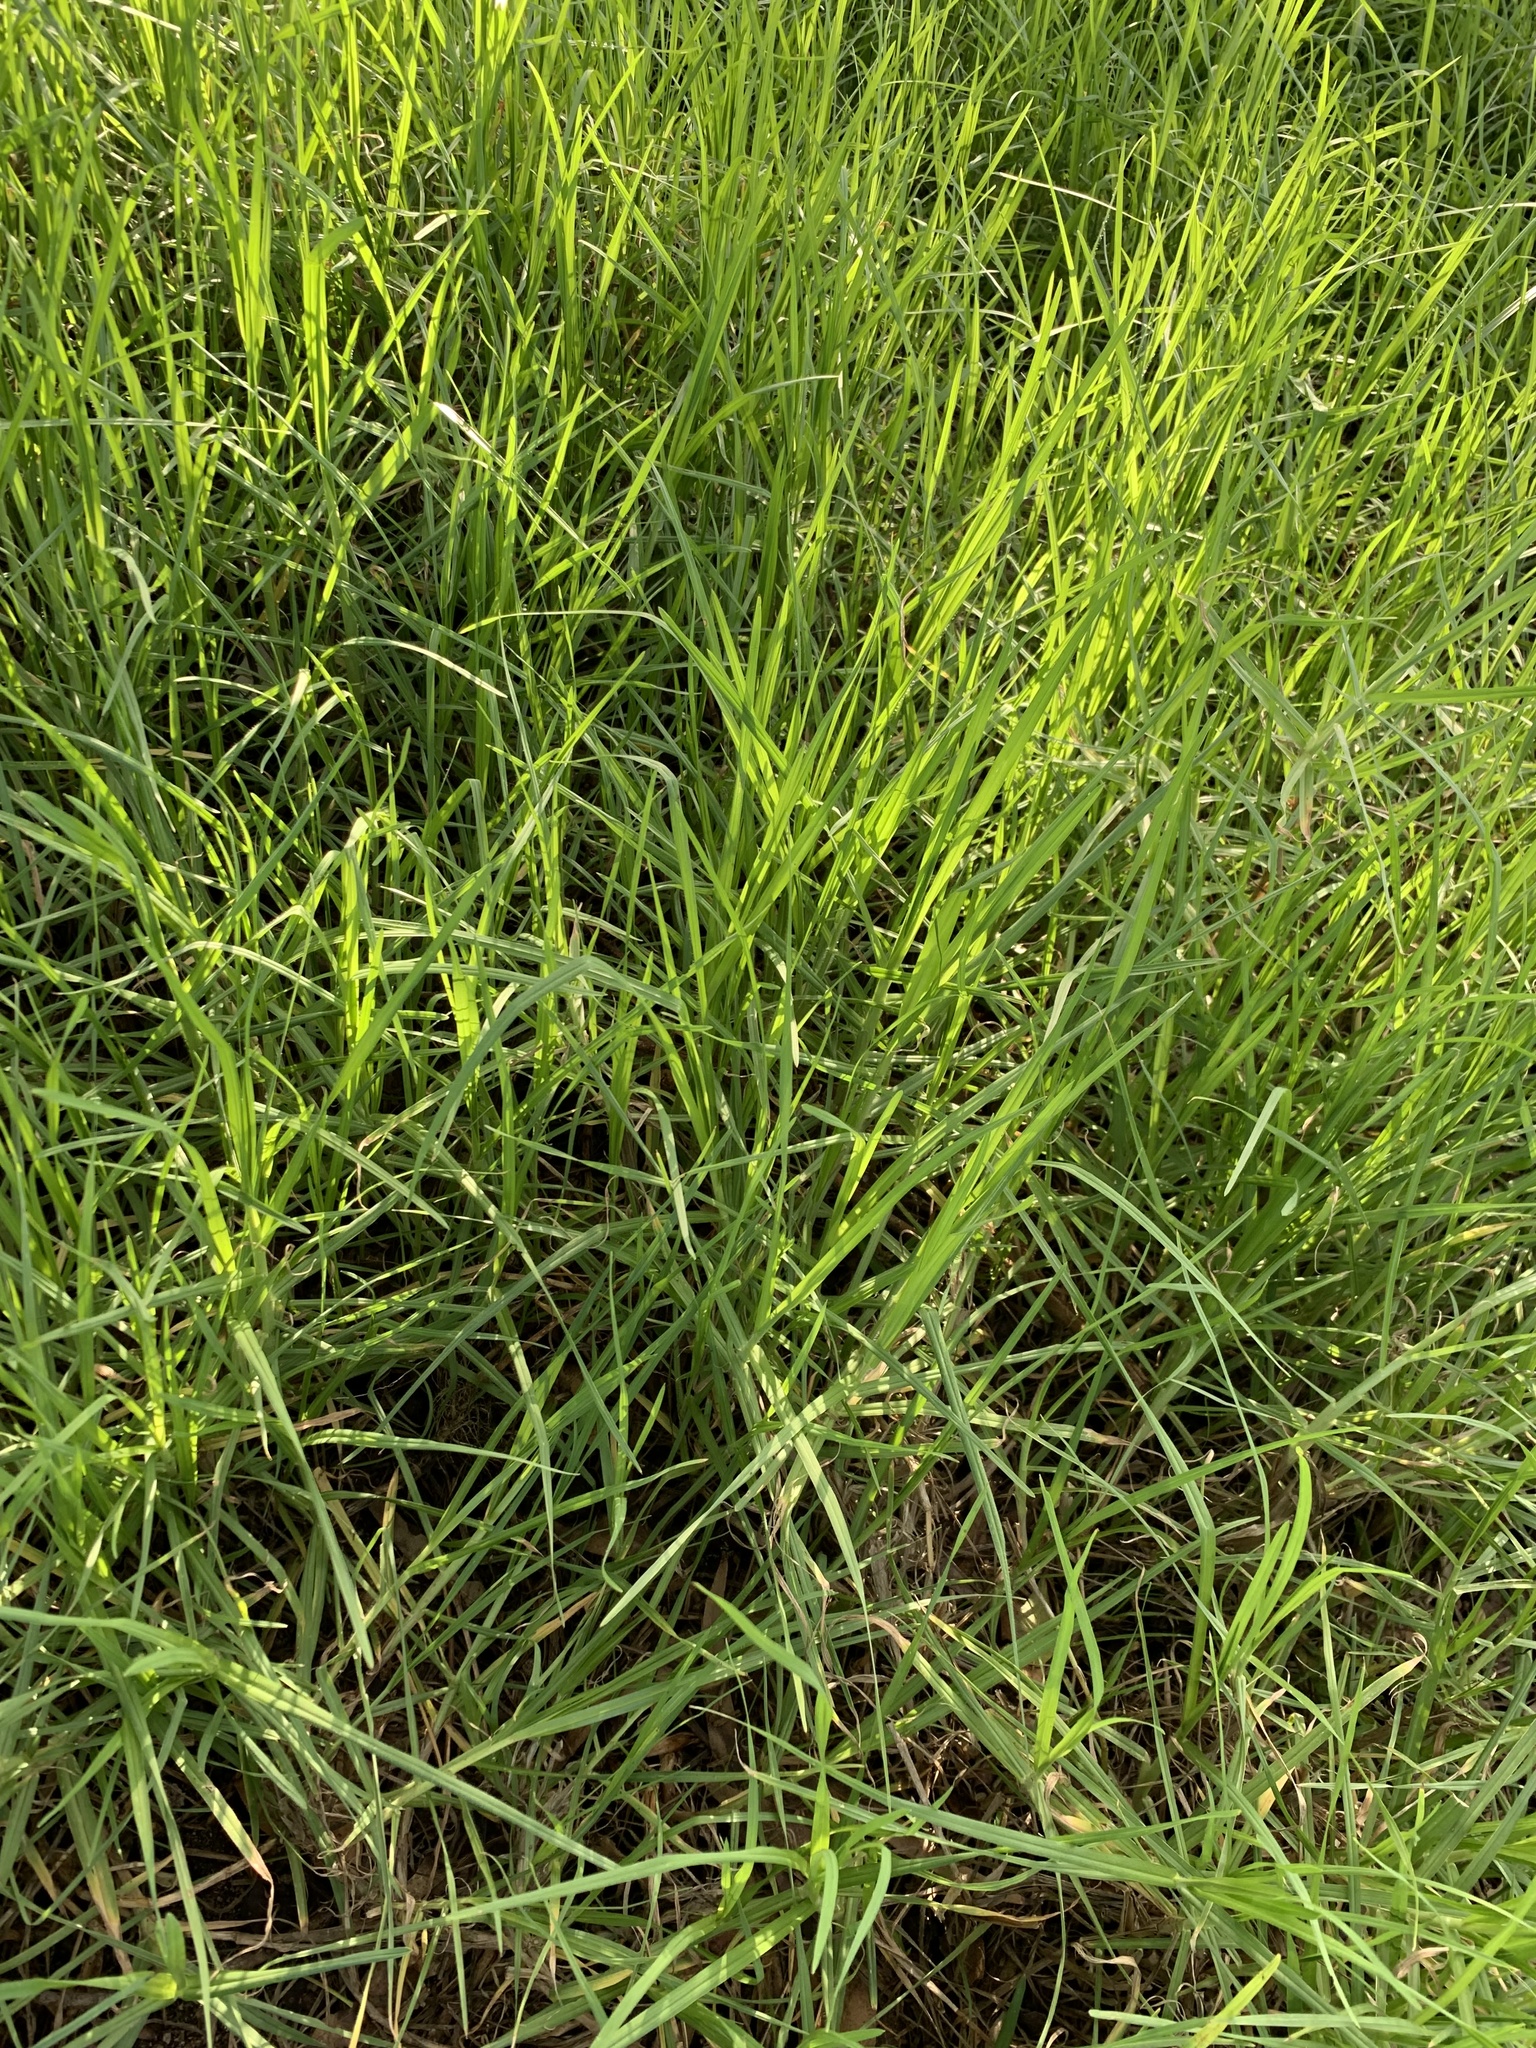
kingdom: Plantae
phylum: Tracheophyta
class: Liliopsida
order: Poales
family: Poaceae
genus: Cenchrus
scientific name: Cenchrus clandestinus
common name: Kikuyugrass
